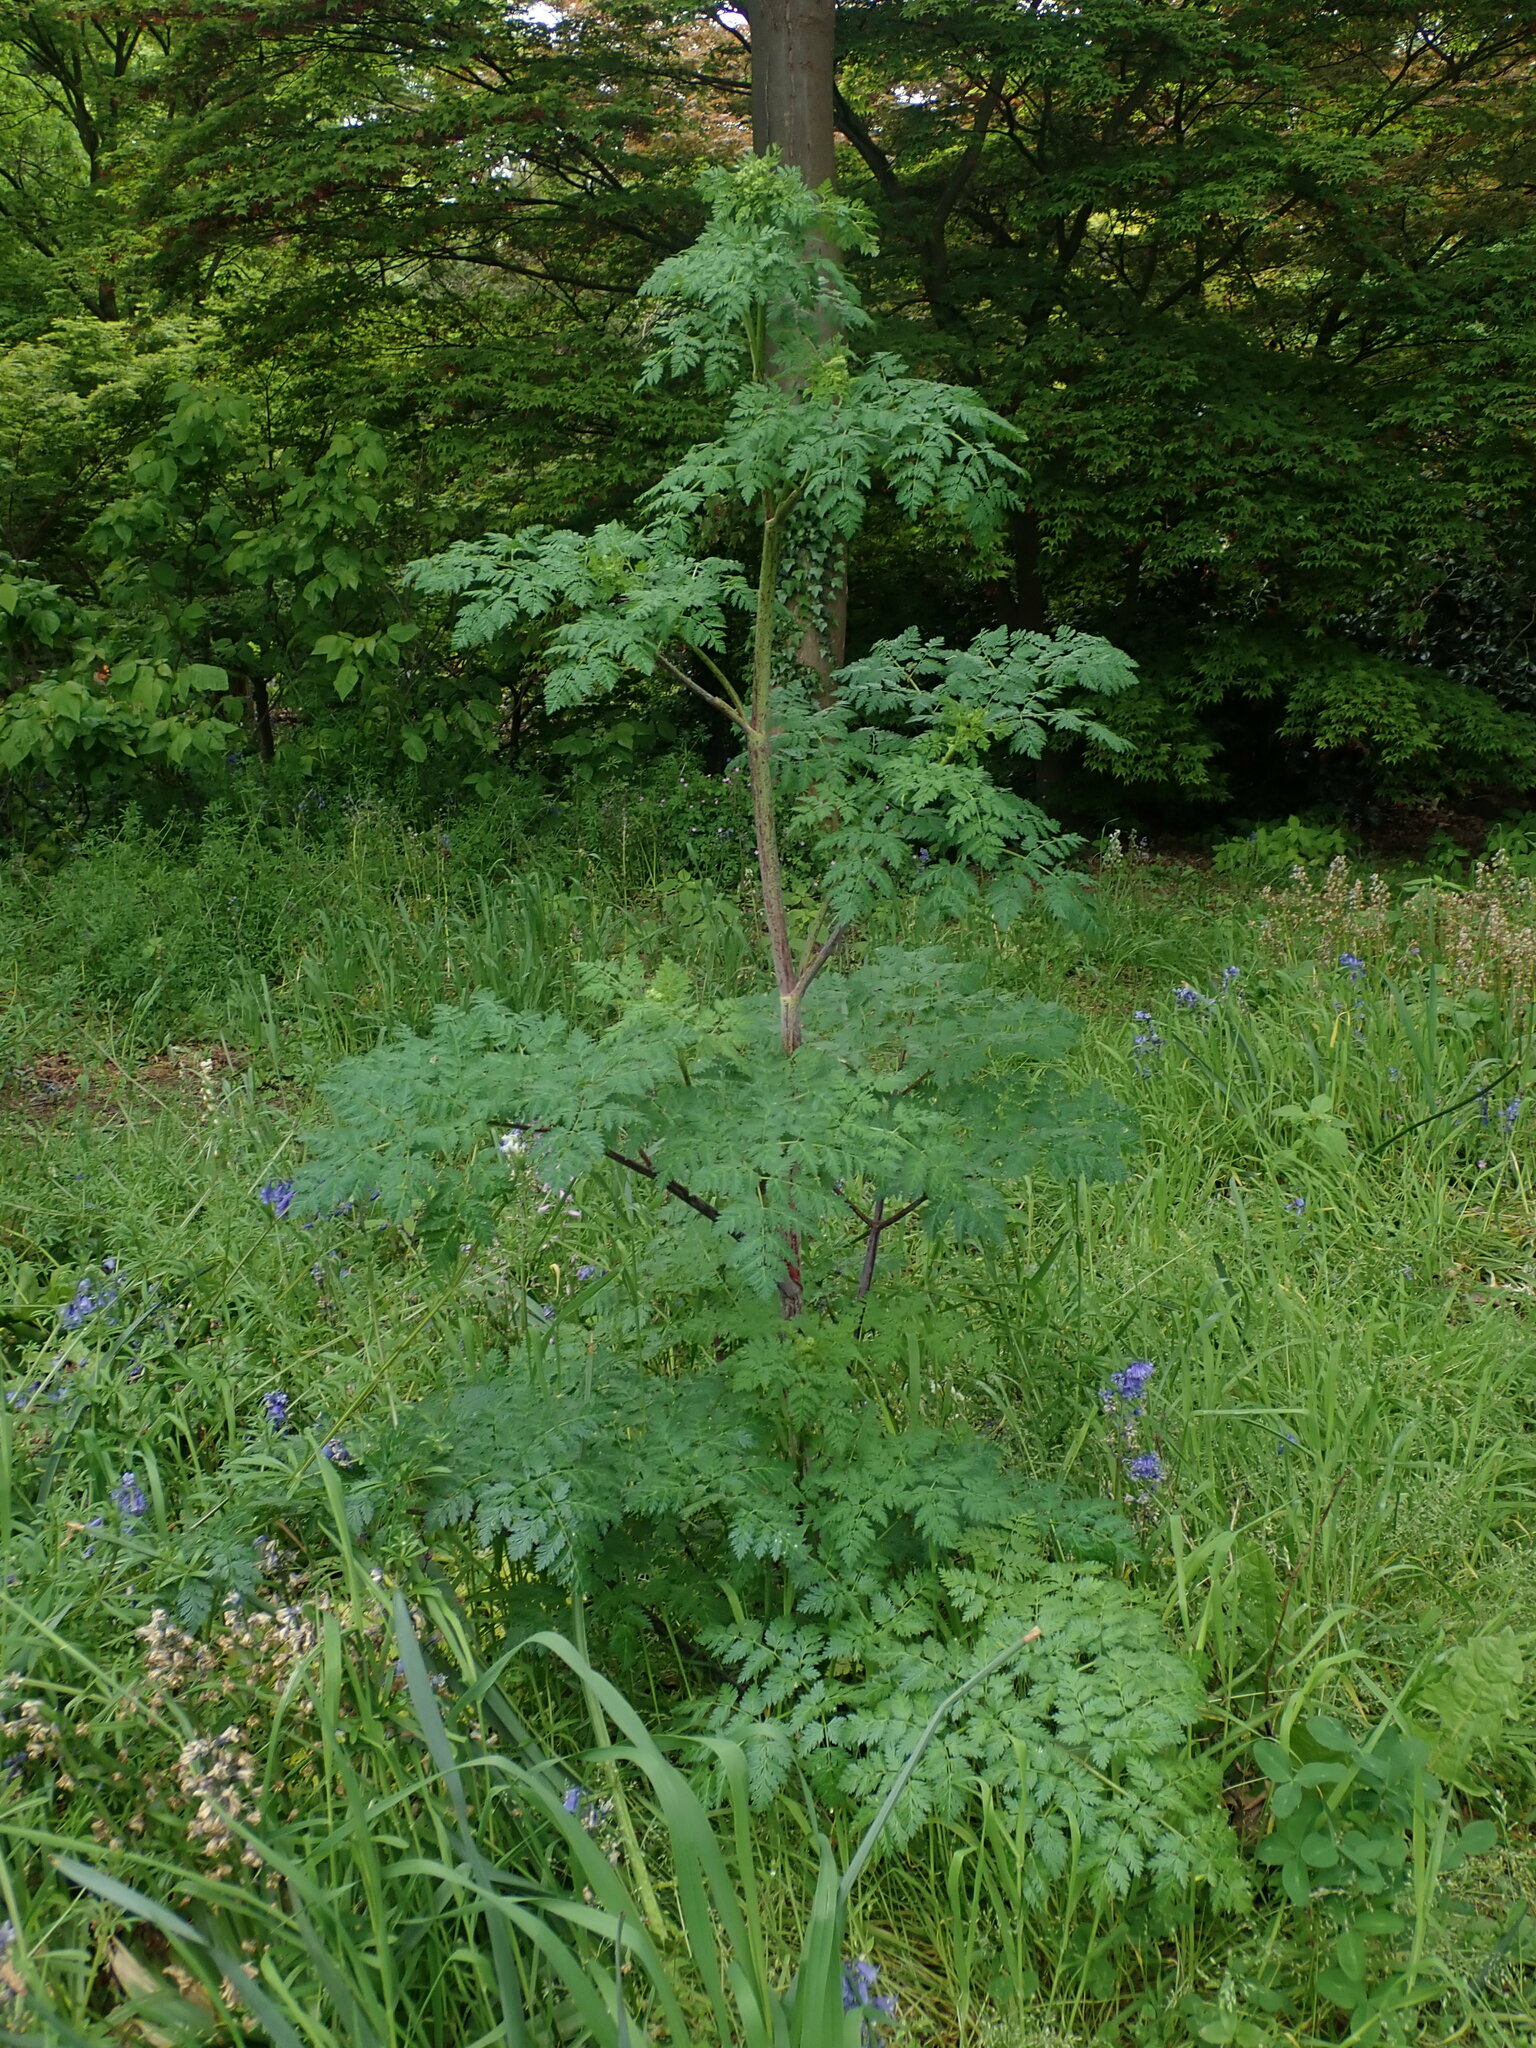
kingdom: Plantae
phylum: Tracheophyta
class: Magnoliopsida
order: Apiales
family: Apiaceae
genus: Conium
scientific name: Conium maculatum
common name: Hemlock
